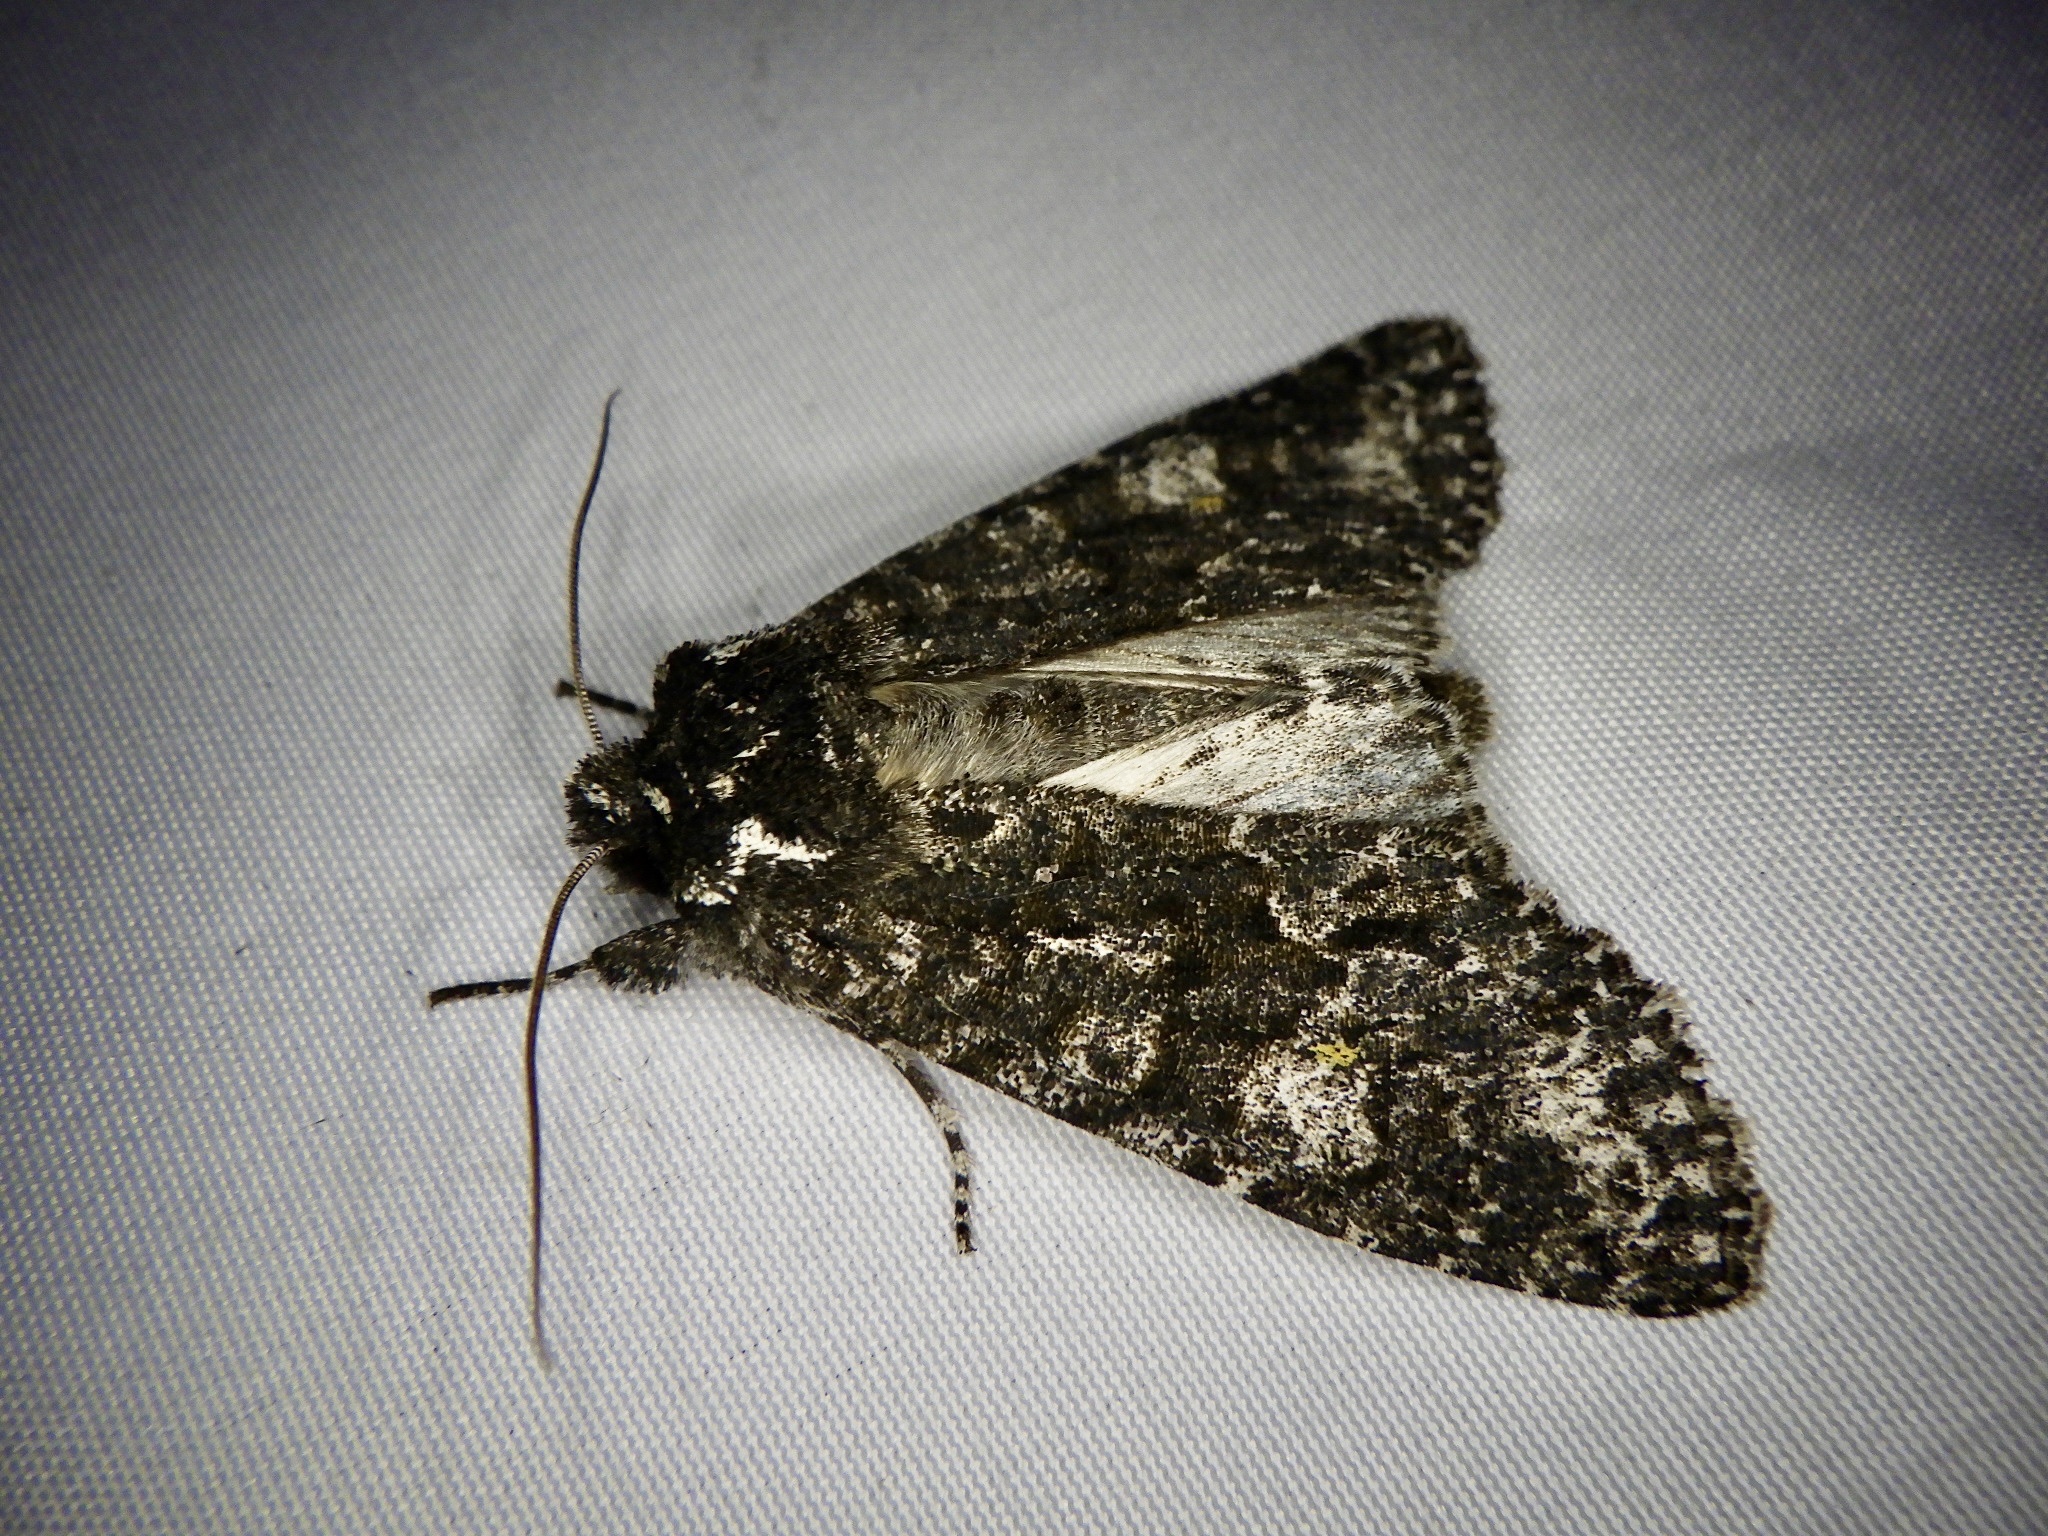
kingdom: Animalia
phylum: Arthropoda
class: Insecta
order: Lepidoptera
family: Noctuidae
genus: Belosticta
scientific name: Belosticta funesta
